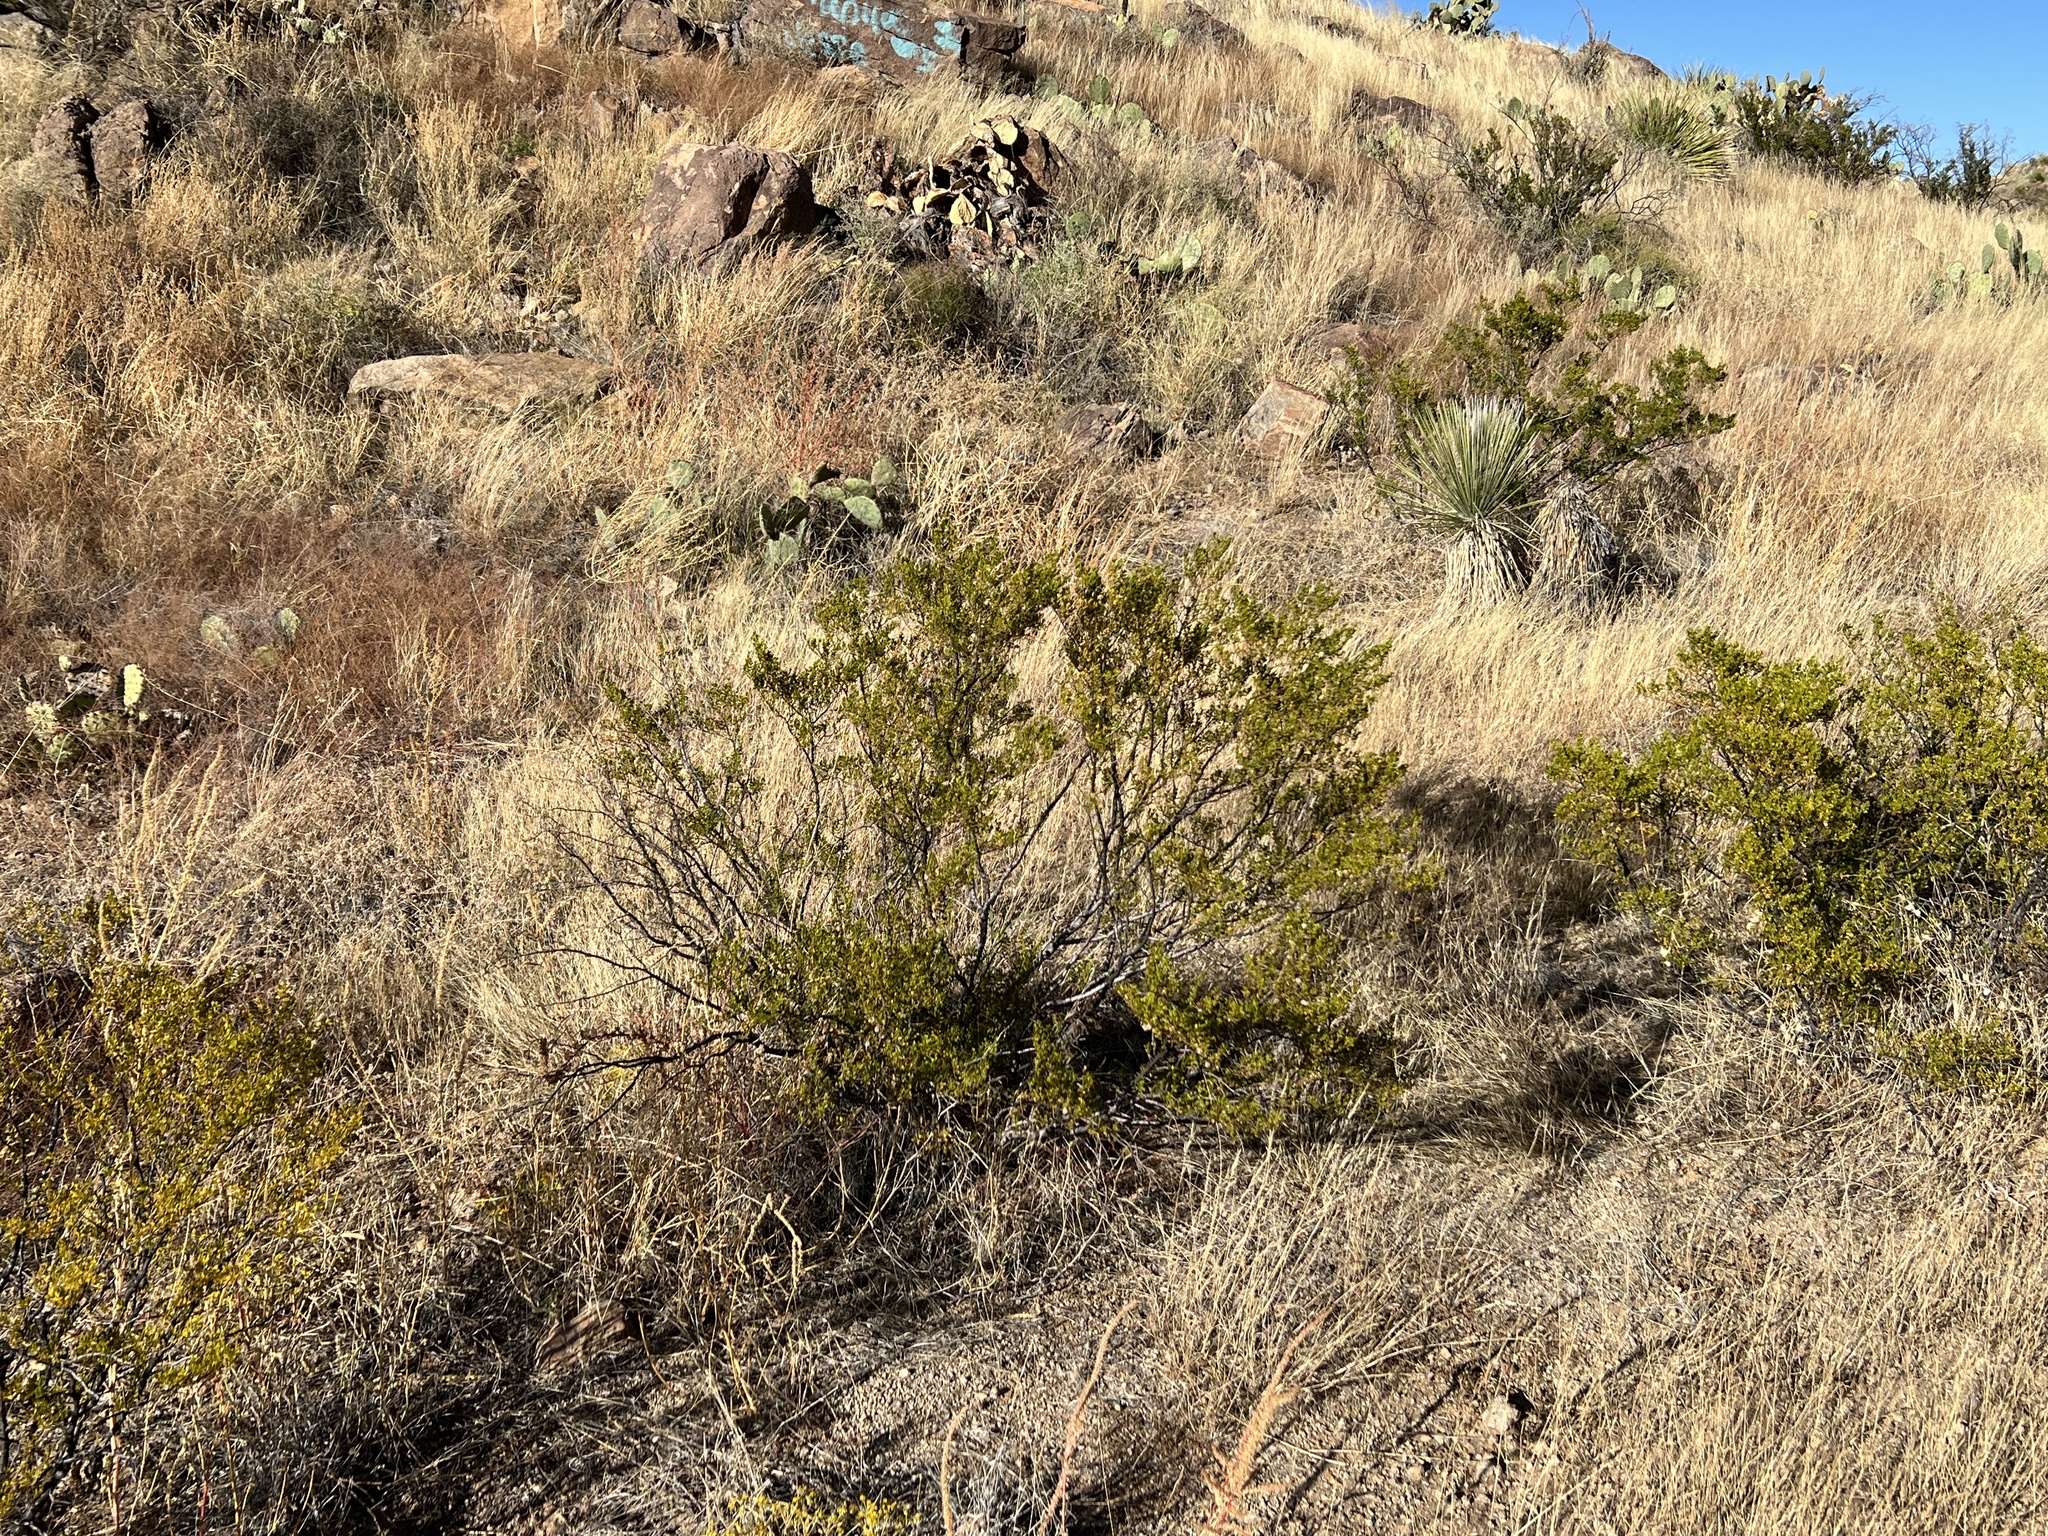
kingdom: Plantae
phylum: Tracheophyta
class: Magnoliopsida
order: Zygophyllales
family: Zygophyllaceae
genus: Larrea
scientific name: Larrea tridentata
